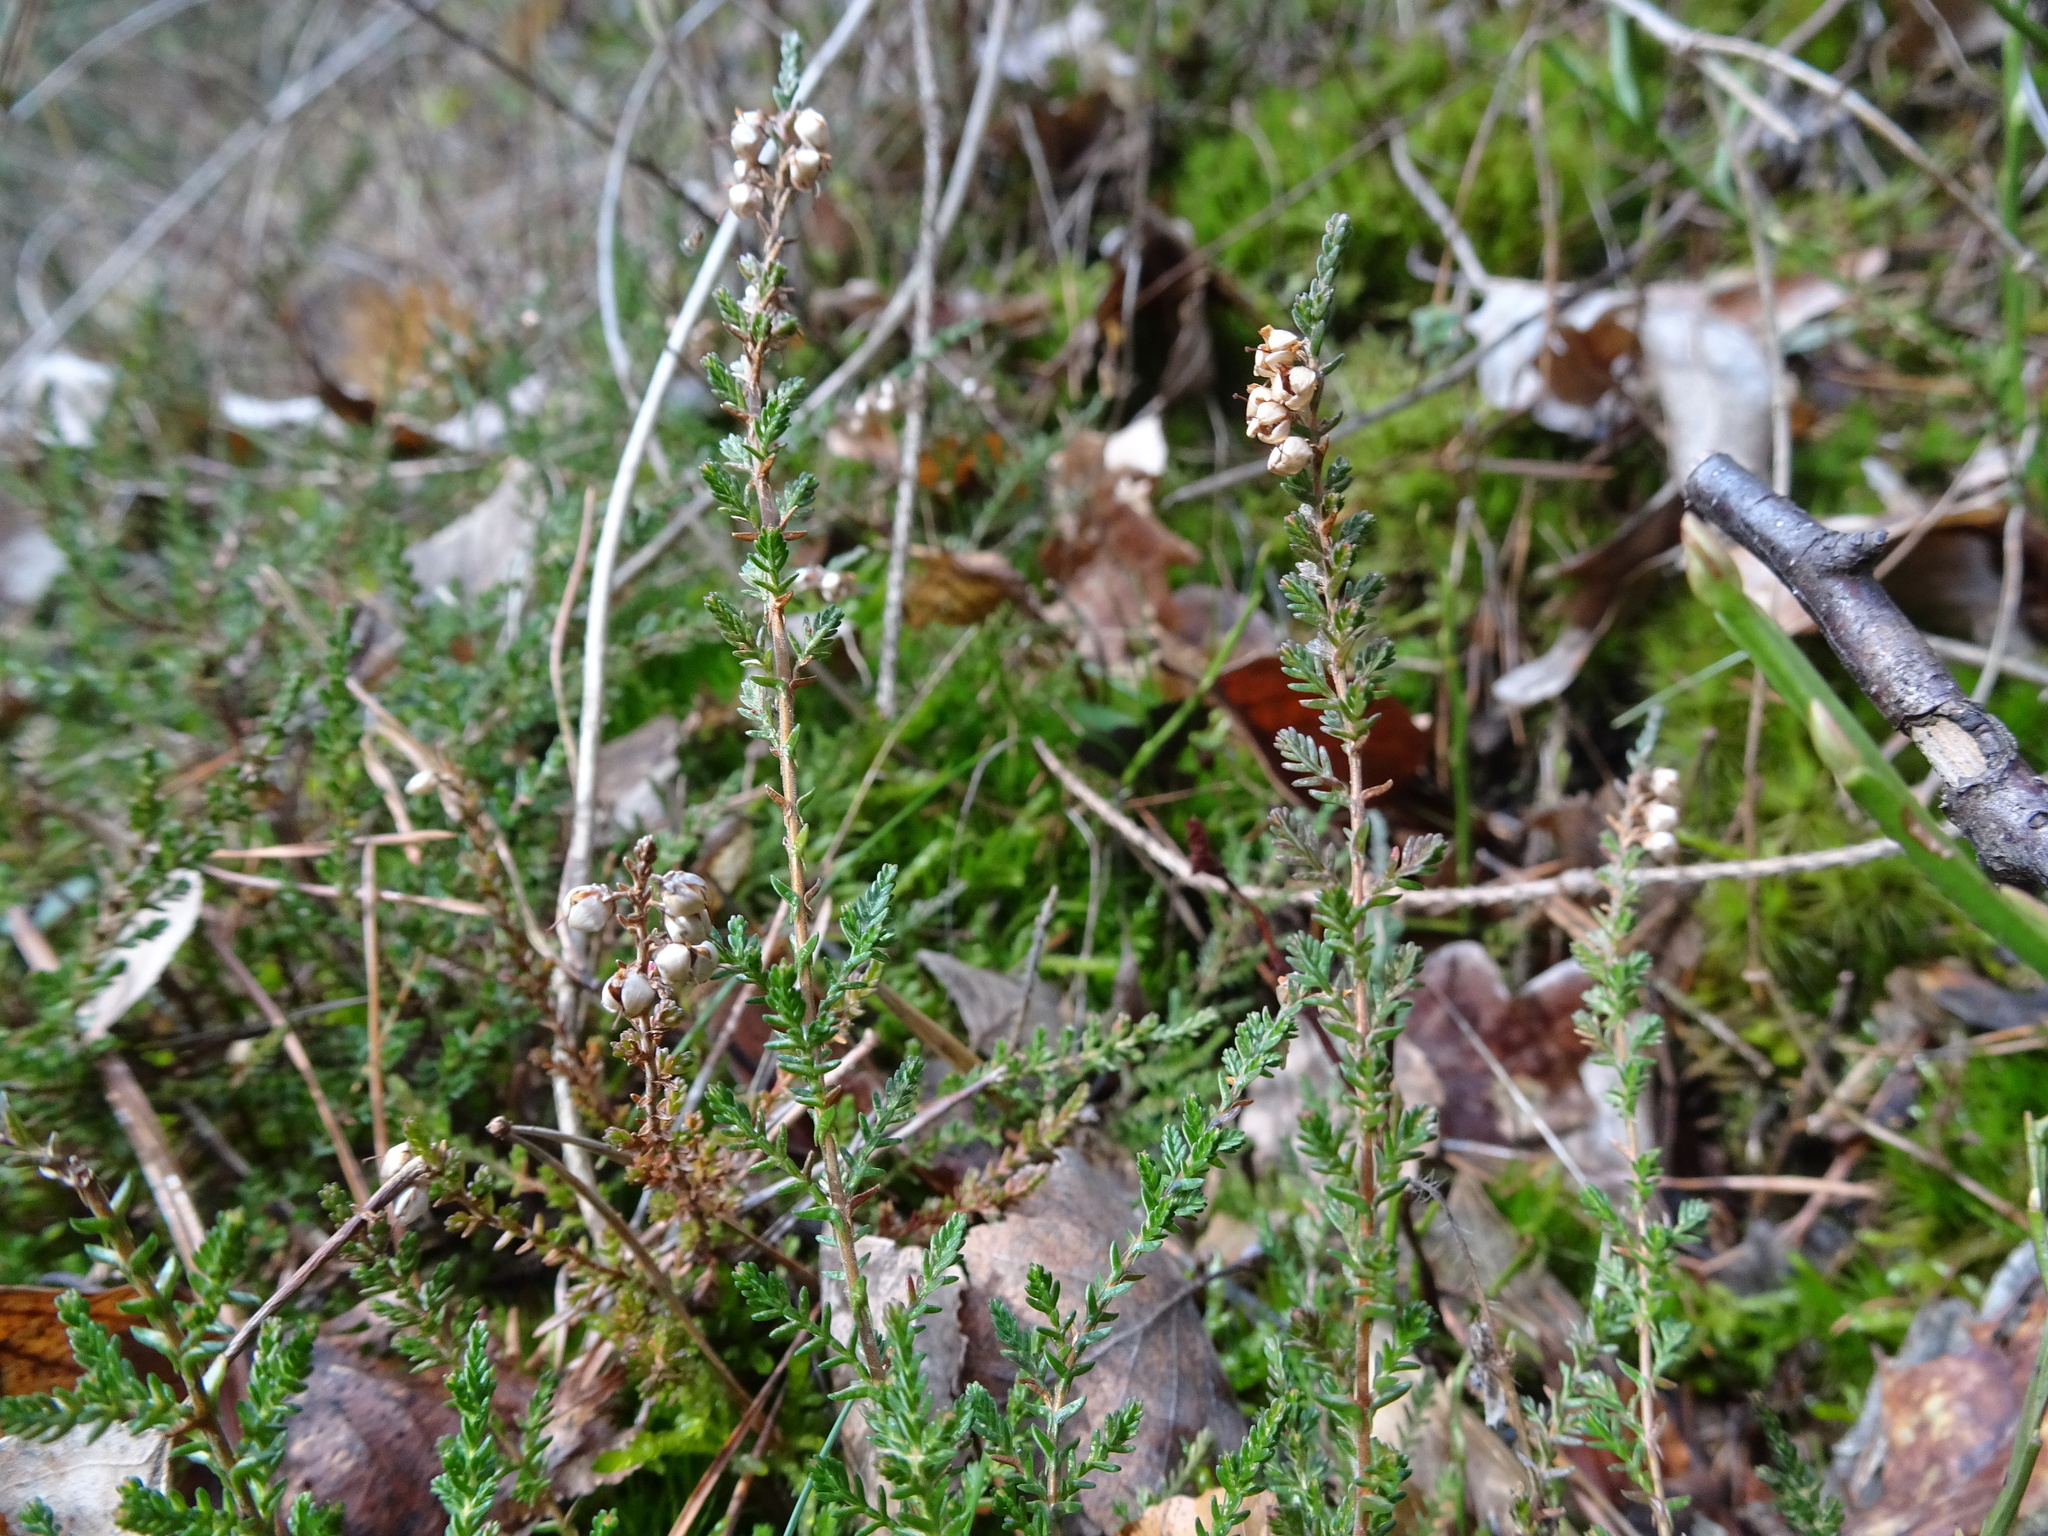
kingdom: Plantae
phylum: Tracheophyta
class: Magnoliopsida
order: Ericales
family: Ericaceae
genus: Calluna
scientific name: Calluna vulgaris
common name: Heather
